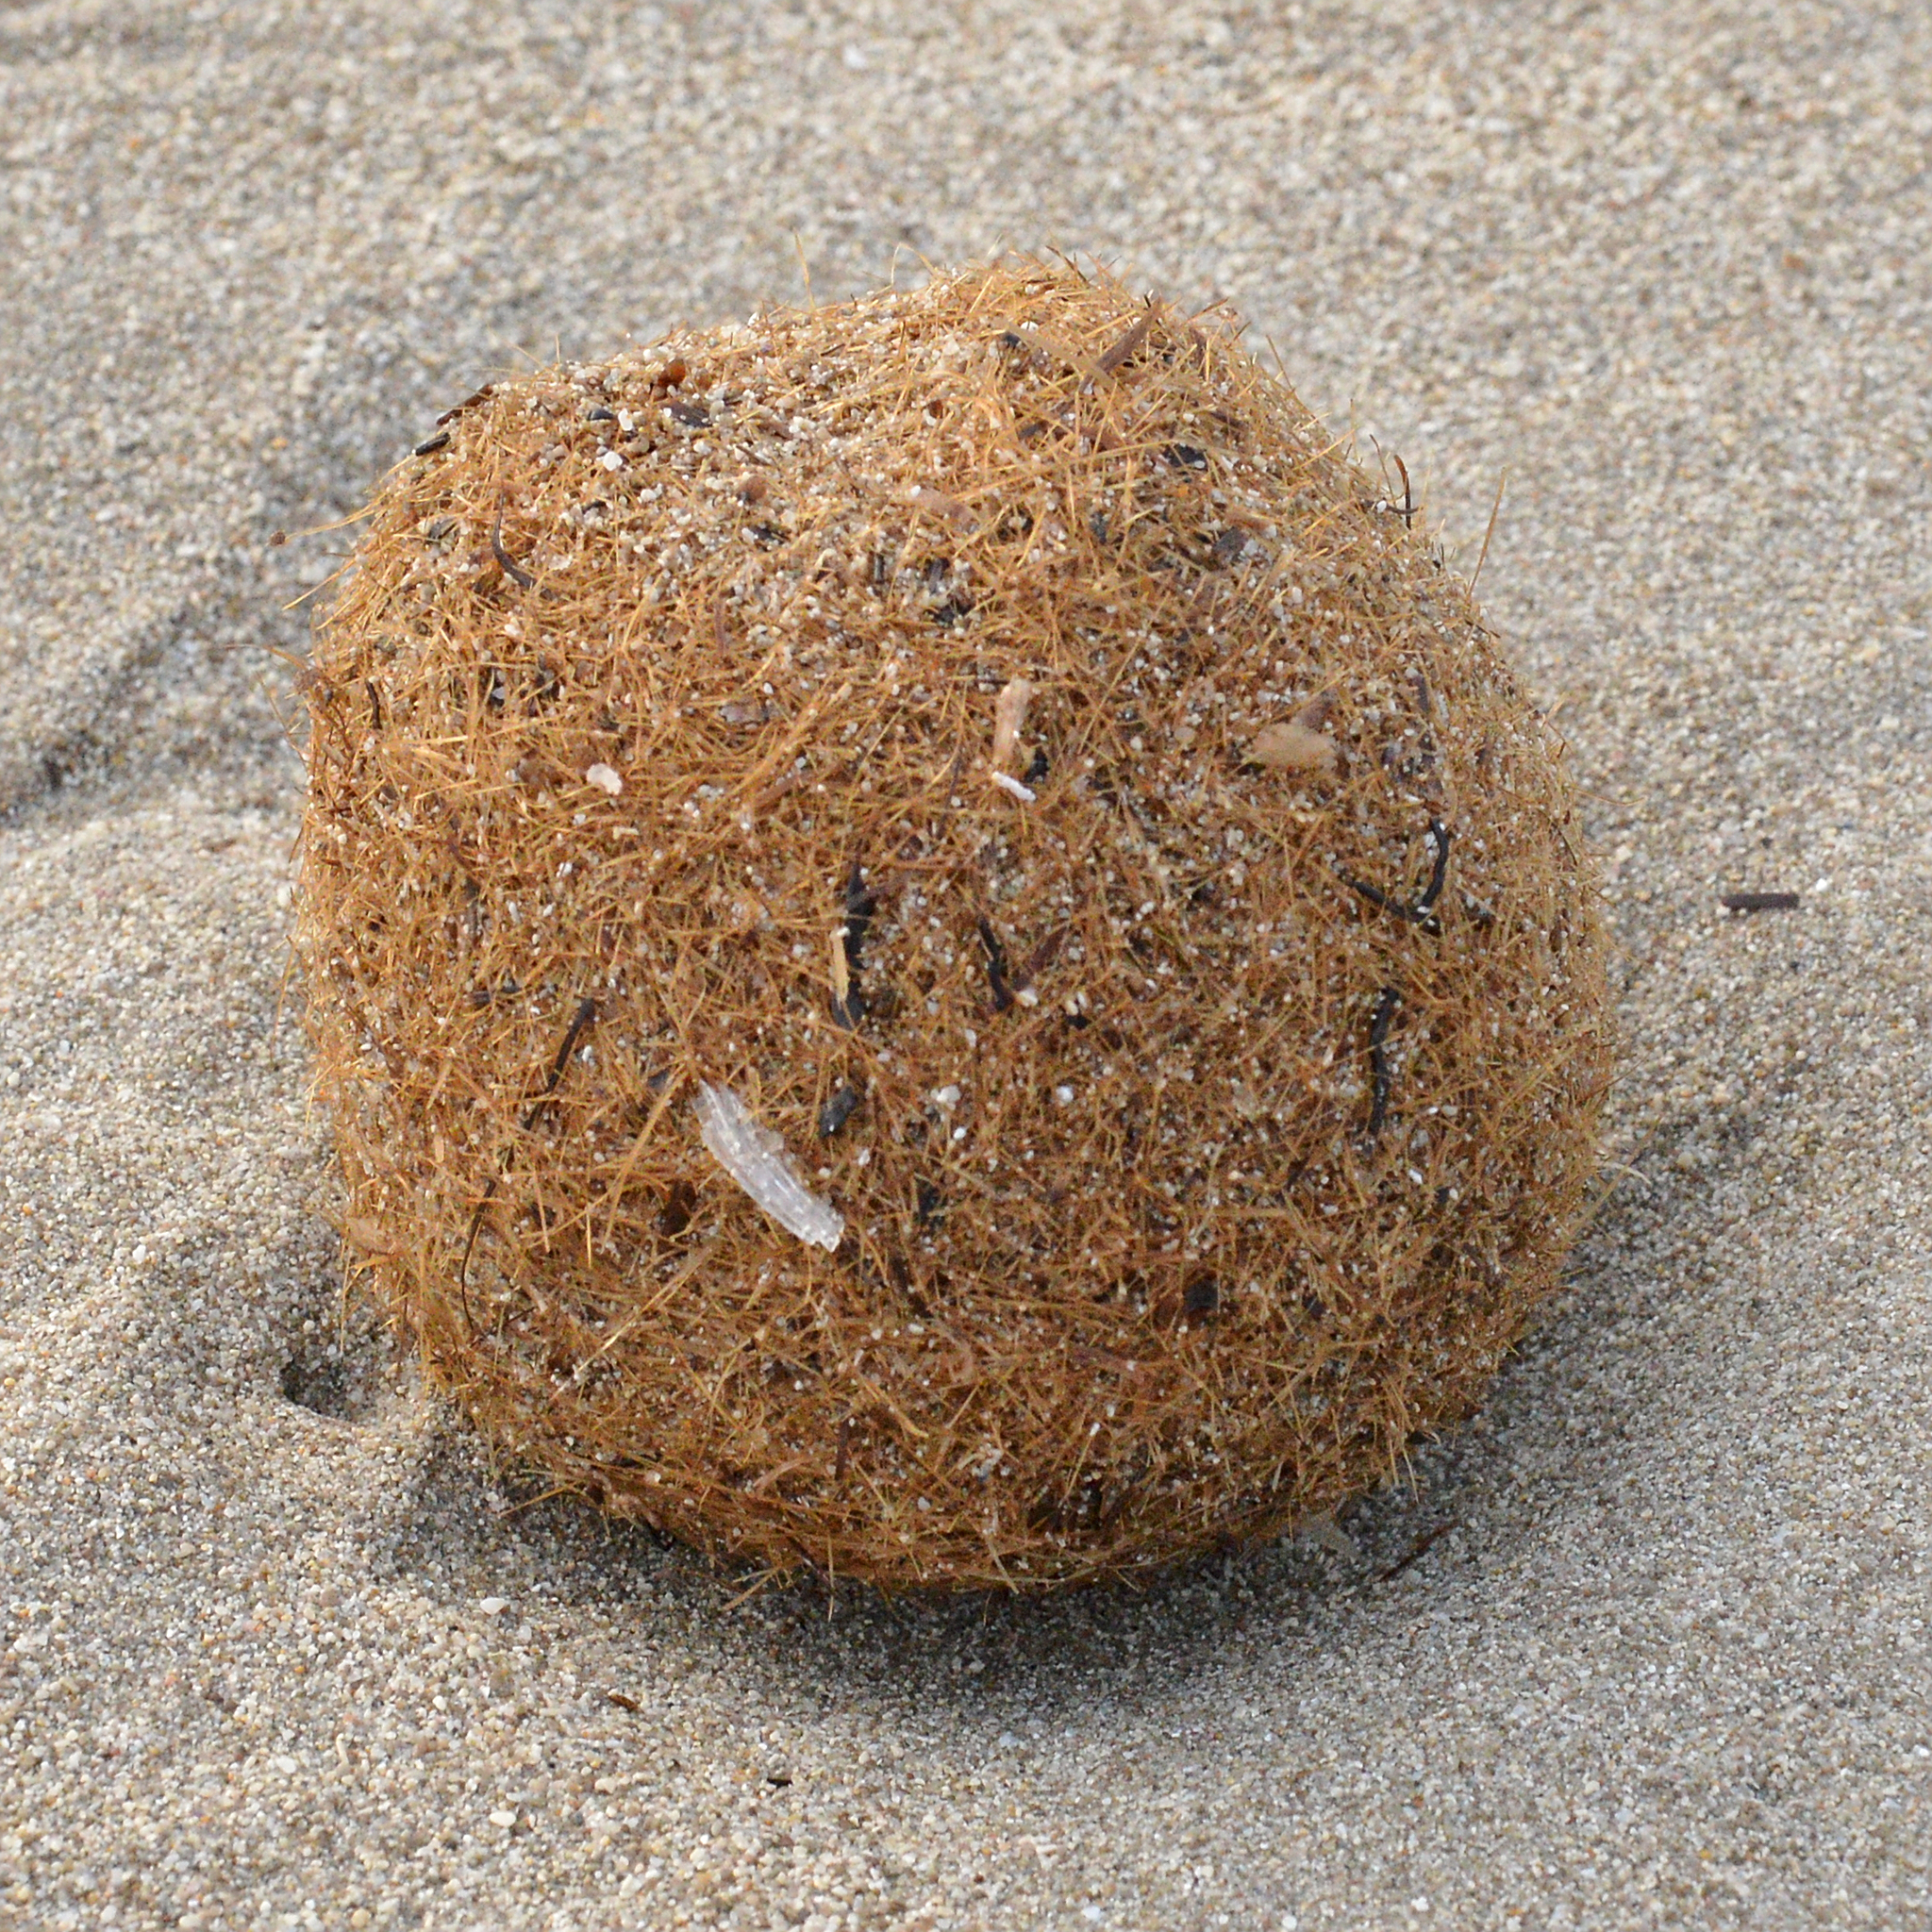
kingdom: Plantae
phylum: Tracheophyta
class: Liliopsida
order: Alismatales
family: Posidoniaceae
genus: Posidonia
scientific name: Posidonia oceanica
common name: Mediterranean tapeweed
